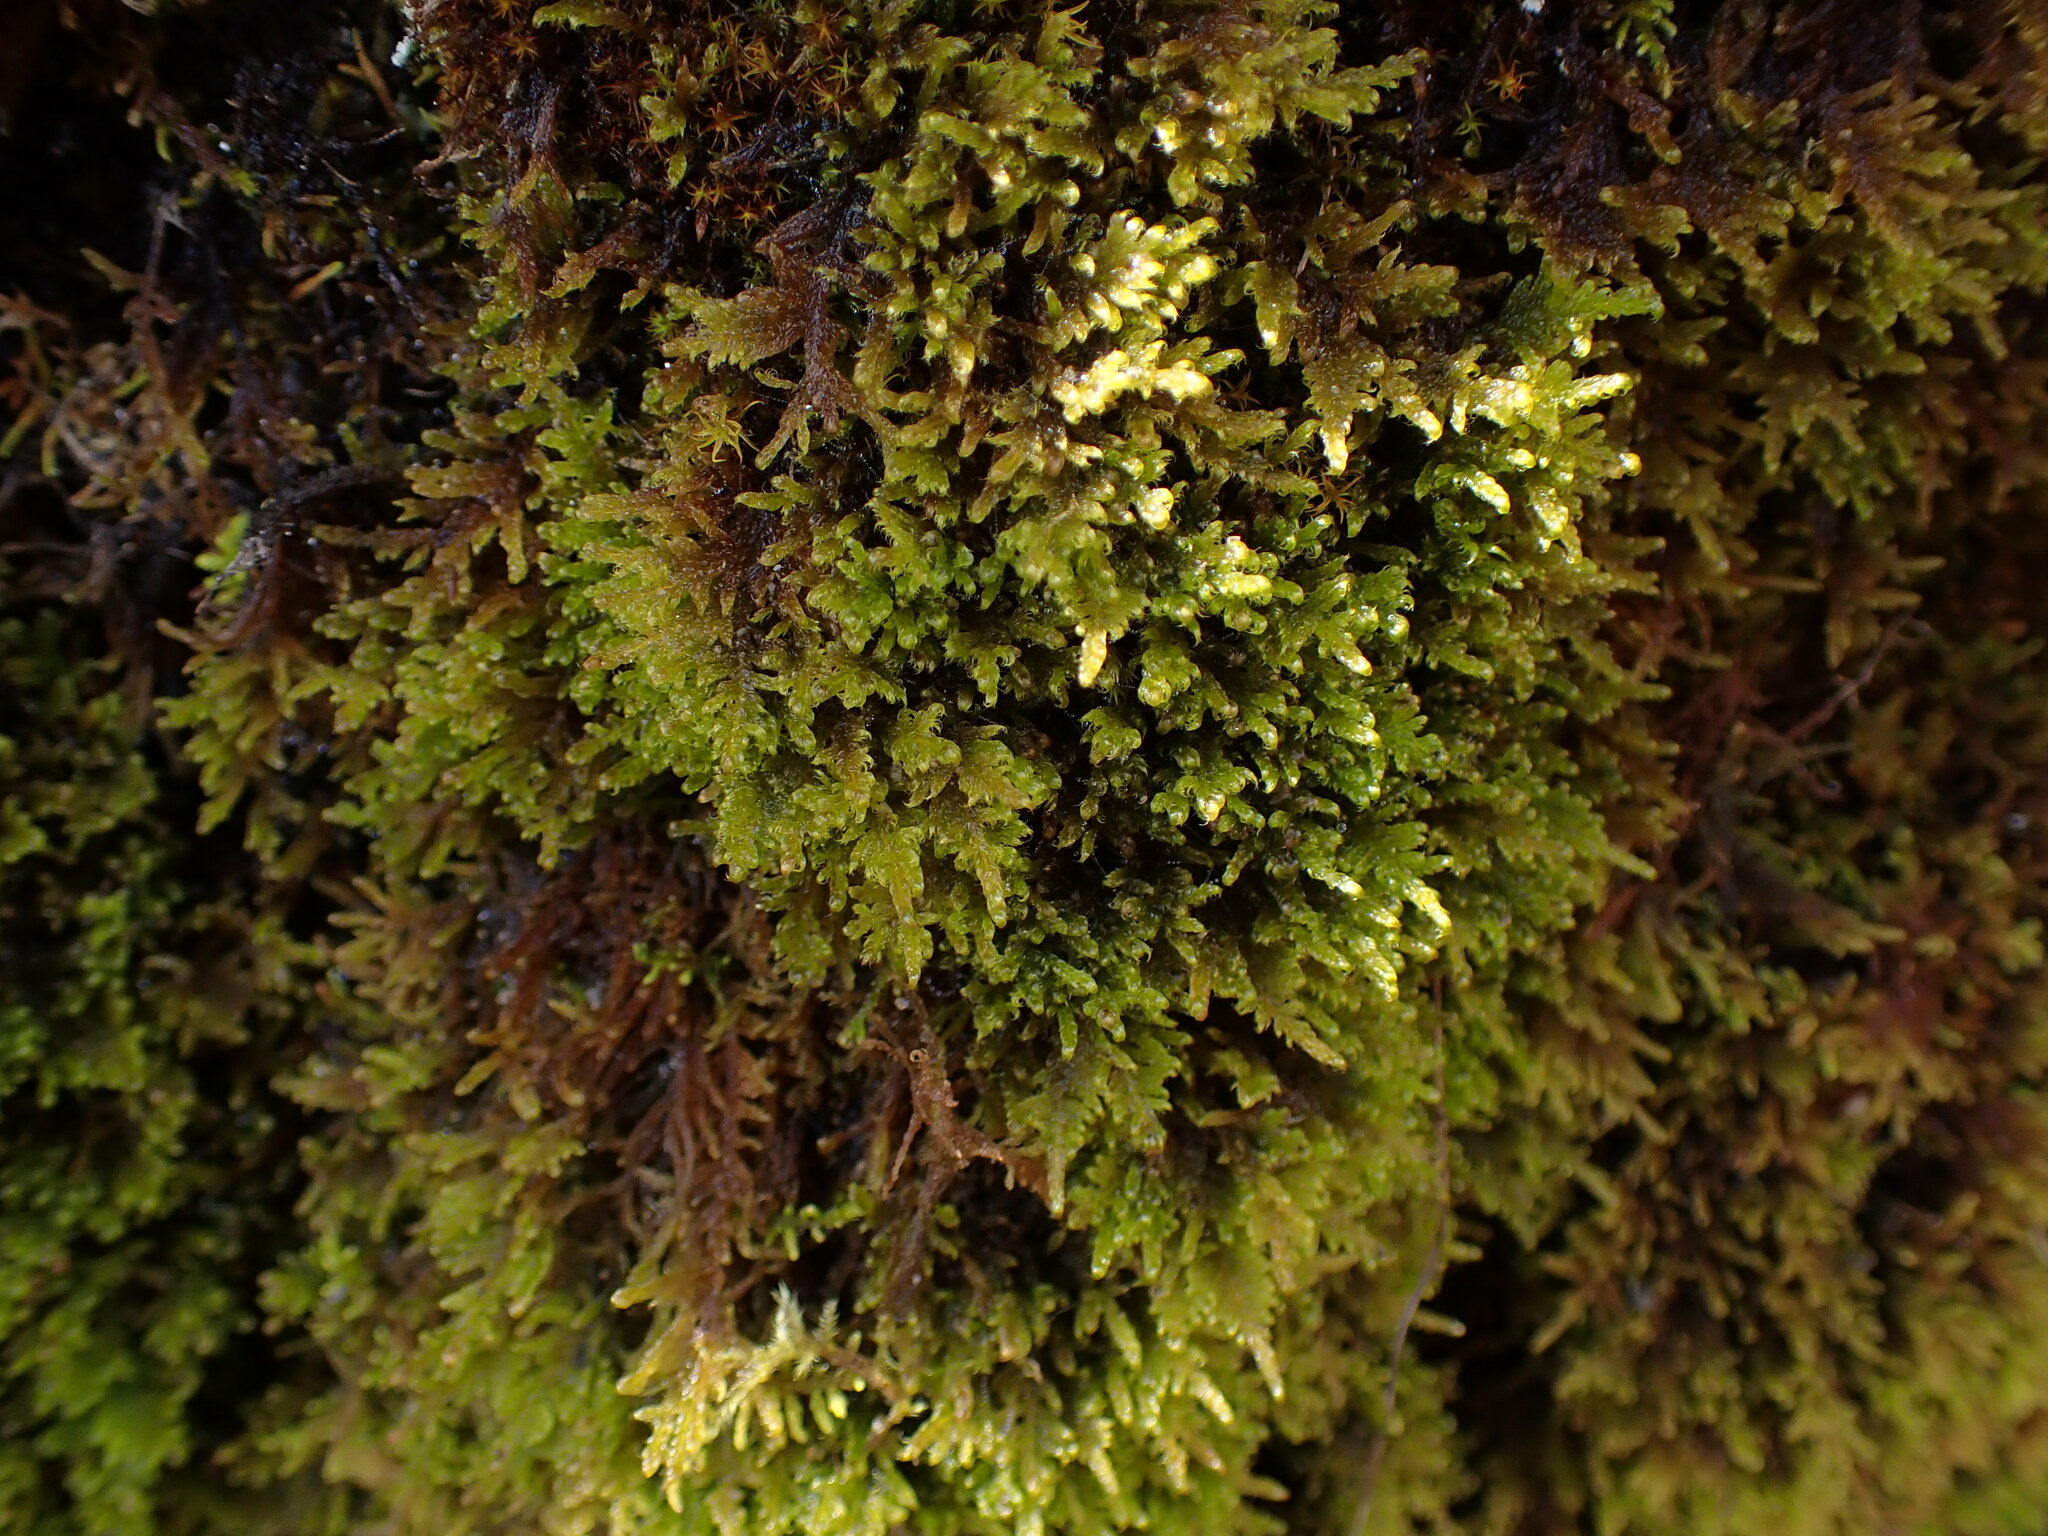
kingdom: Plantae
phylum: Bryophyta
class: Bryopsida
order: Hypnales
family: Stereodontaceae
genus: Stereodon
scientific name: Stereodon subimponens
